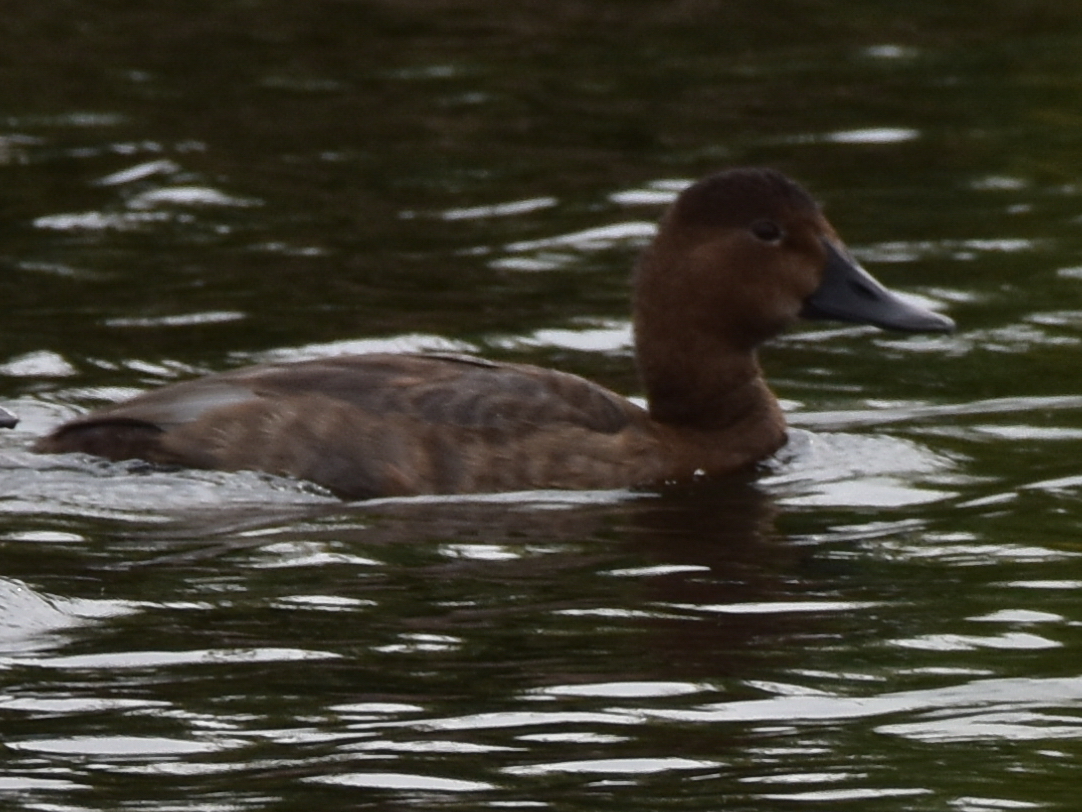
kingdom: Animalia
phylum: Chordata
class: Aves
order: Anseriformes
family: Anatidae
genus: Aythya
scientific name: Aythya ferina
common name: Common pochard
